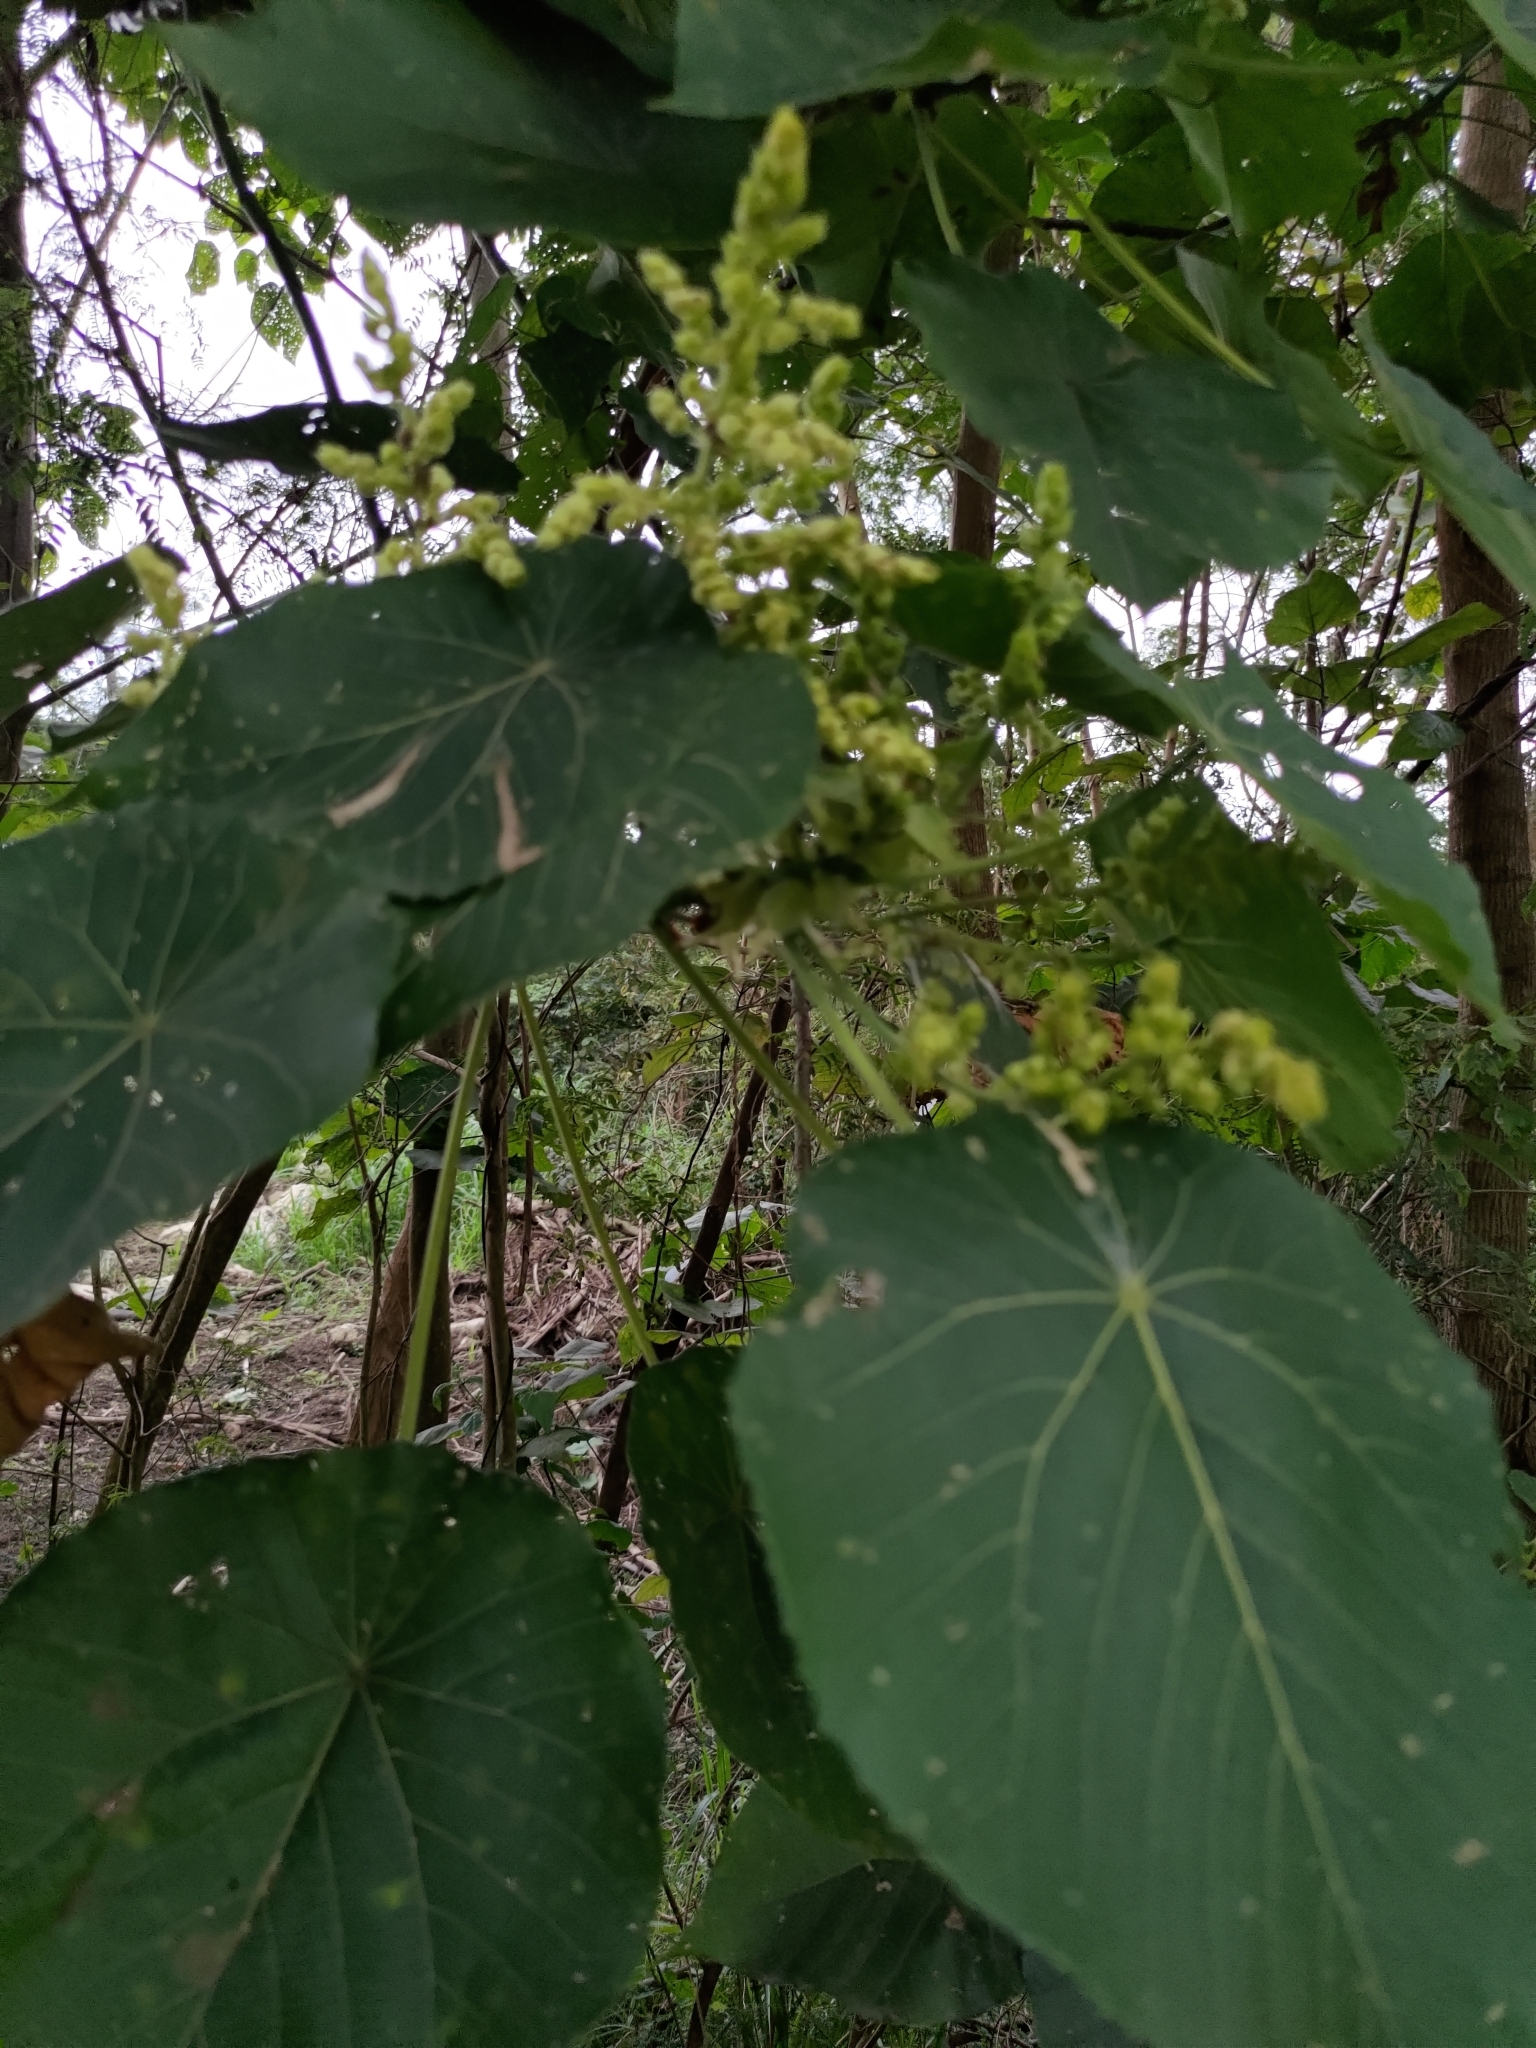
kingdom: Plantae
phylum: Tracheophyta
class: Magnoliopsida
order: Malpighiales
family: Euphorbiaceae
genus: Macaranga
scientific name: Macaranga tanarius
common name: Parasol leaf tree
